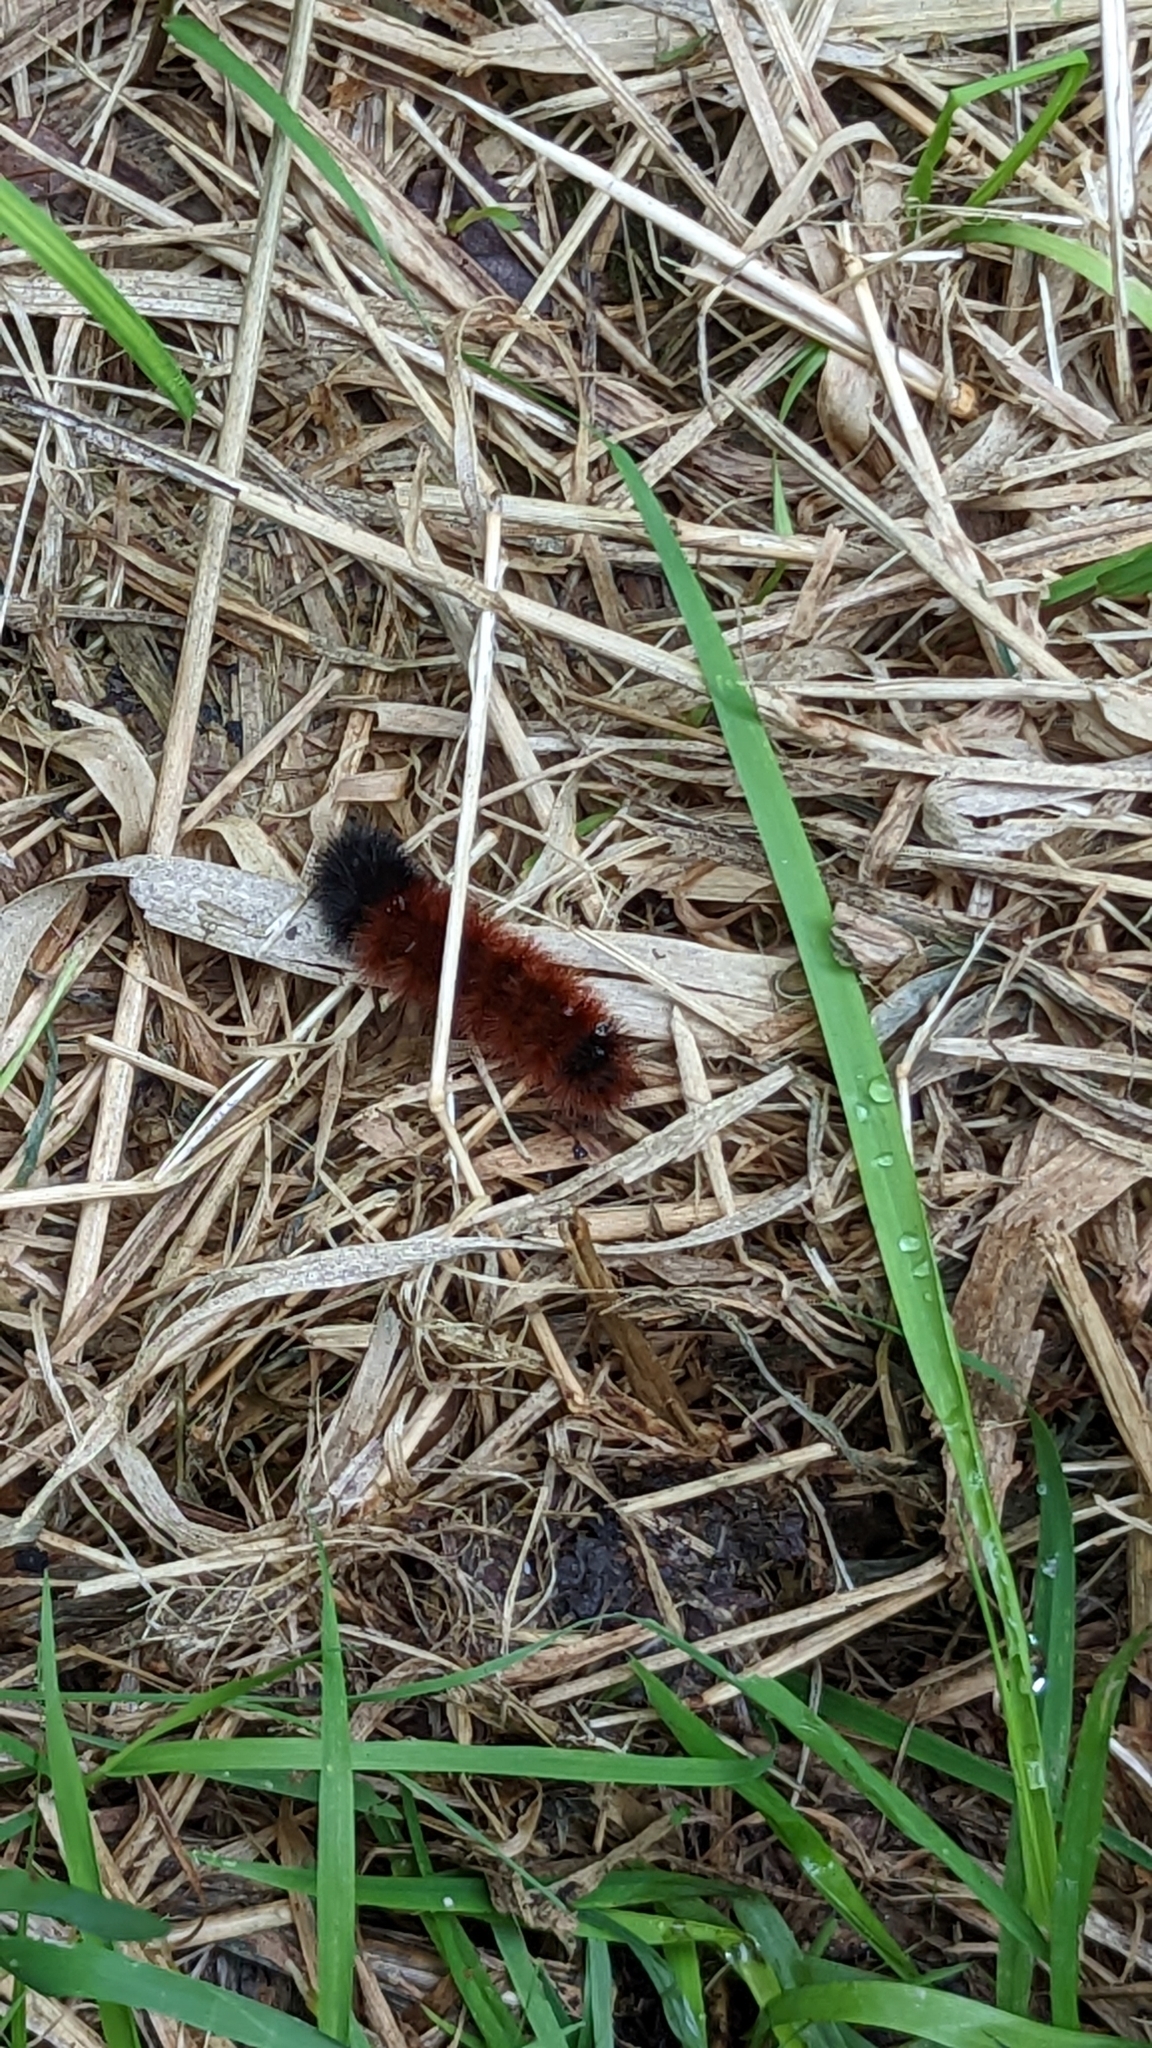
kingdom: Animalia
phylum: Arthropoda
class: Insecta
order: Lepidoptera
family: Erebidae
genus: Pyrrharctia
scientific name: Pyrrharctia isabella
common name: Isabella tiger moth
